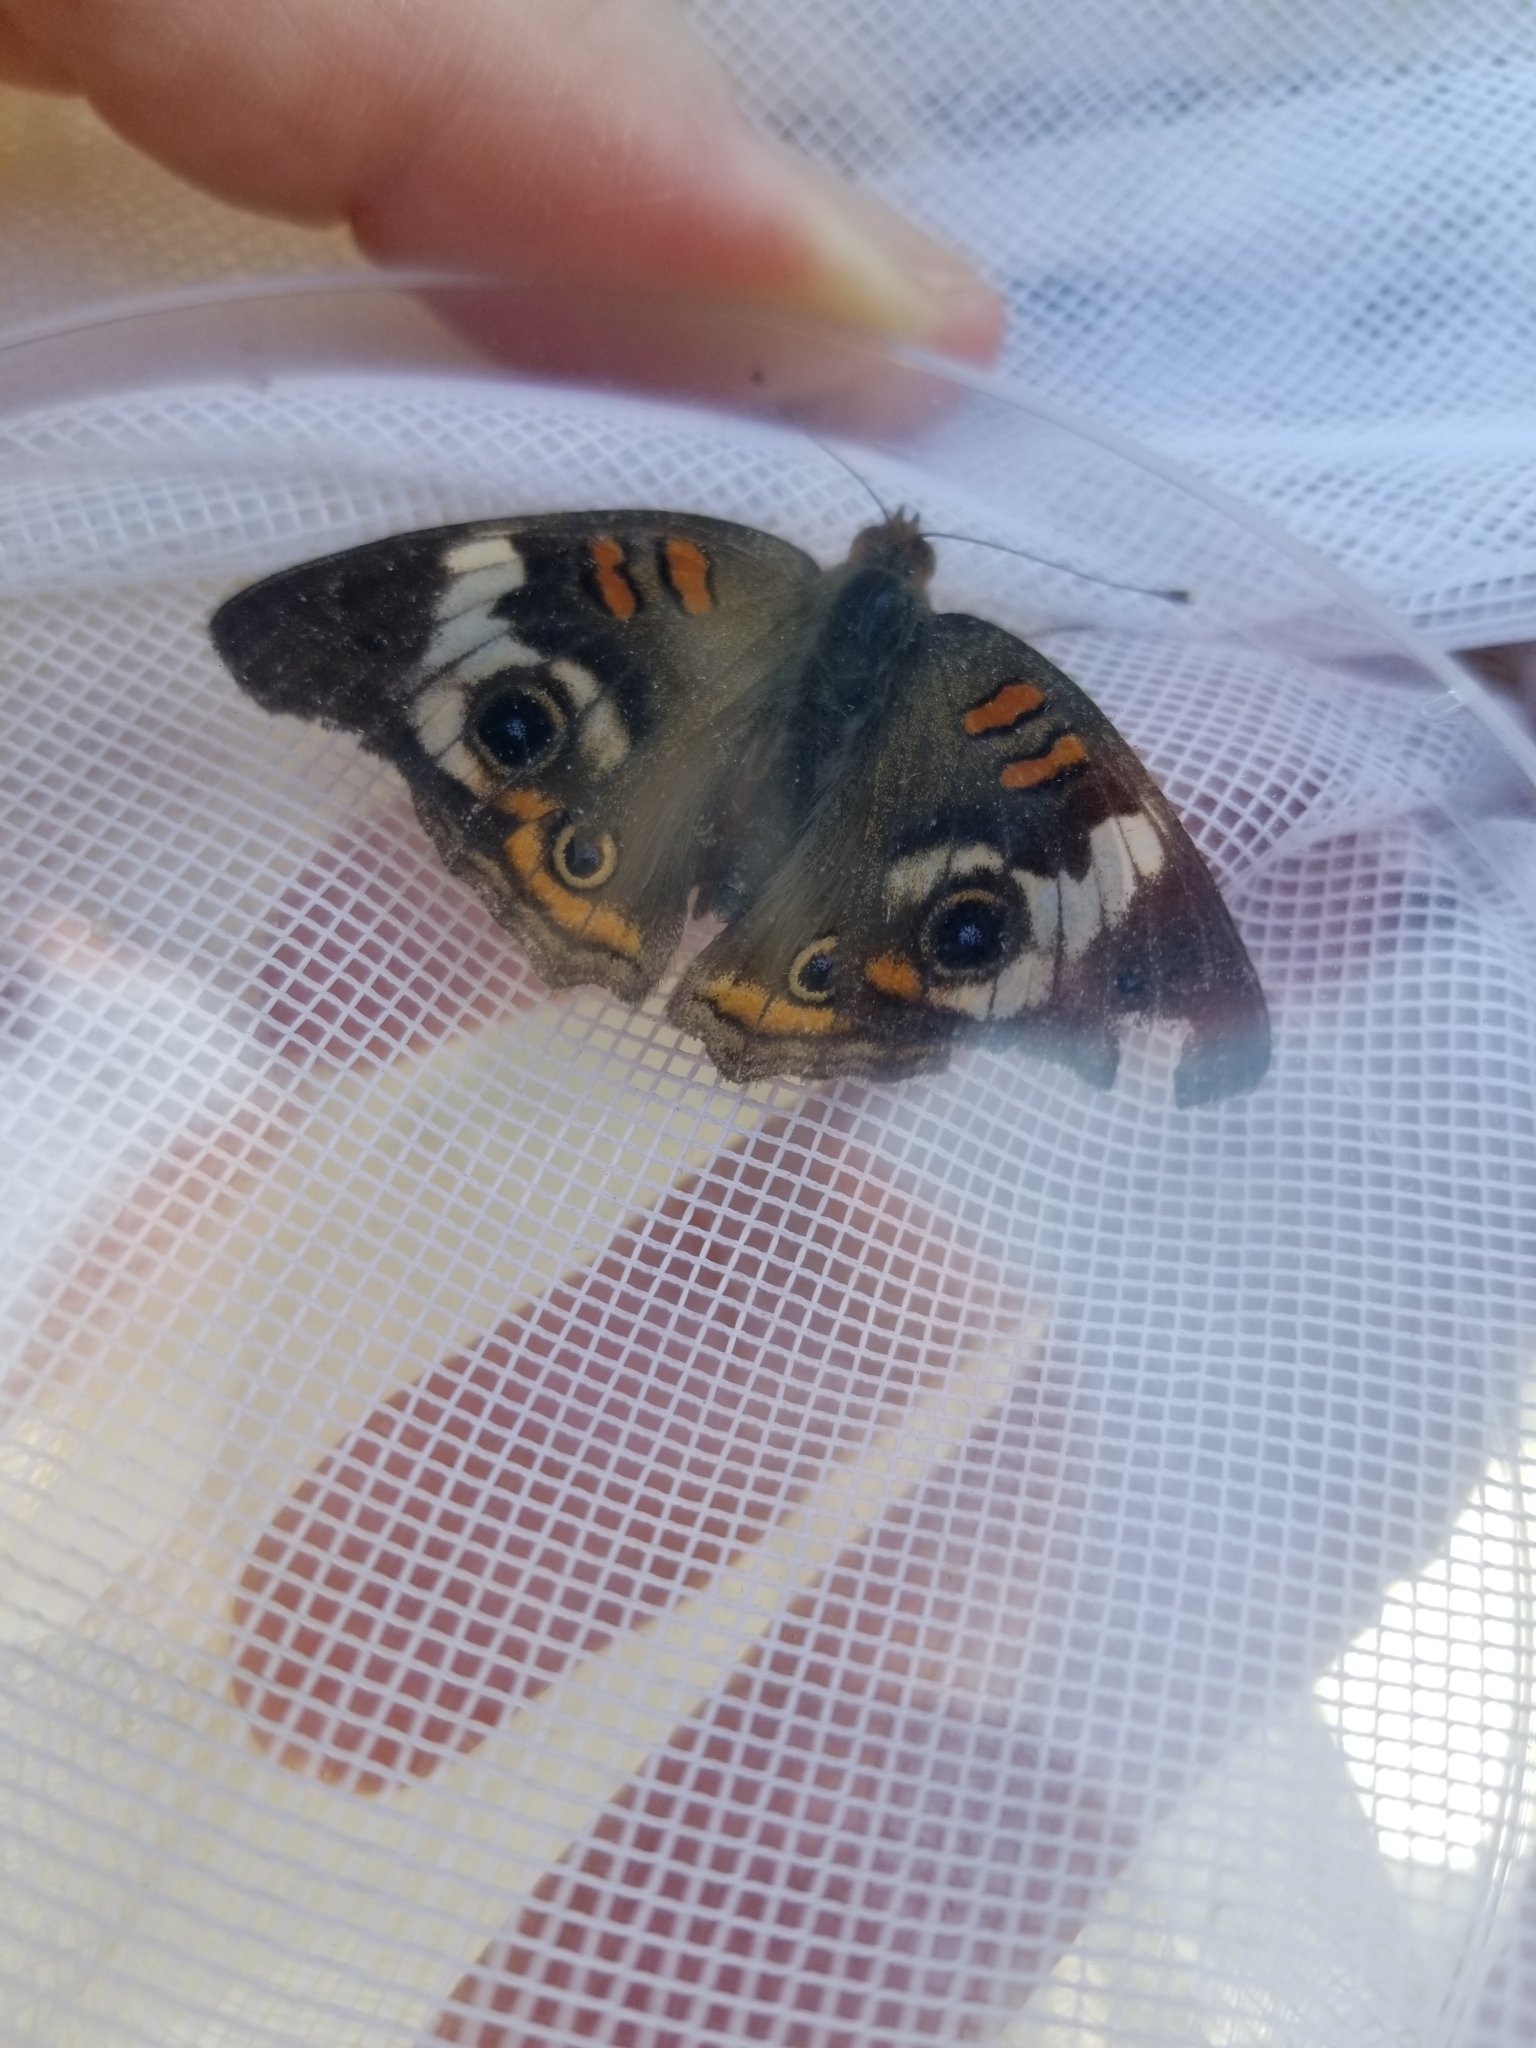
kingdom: Animalia
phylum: Arthropoda
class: Insecta
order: Lepidoptera
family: Nymphalidae
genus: Junonia
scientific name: Junonia coenia
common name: Common buckeye
